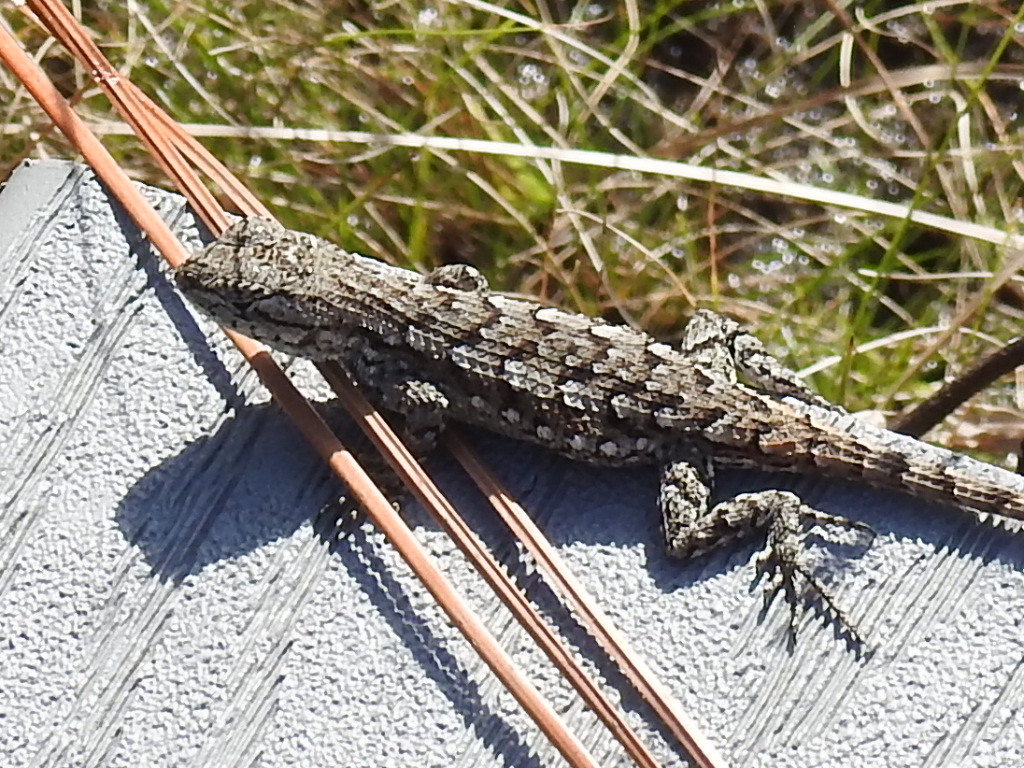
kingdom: Animalia
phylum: Chordata
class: Squamata
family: Phrynosomatidae
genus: Sceloporus
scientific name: Sceloporus consobrinus
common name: Southern prairie lizard
